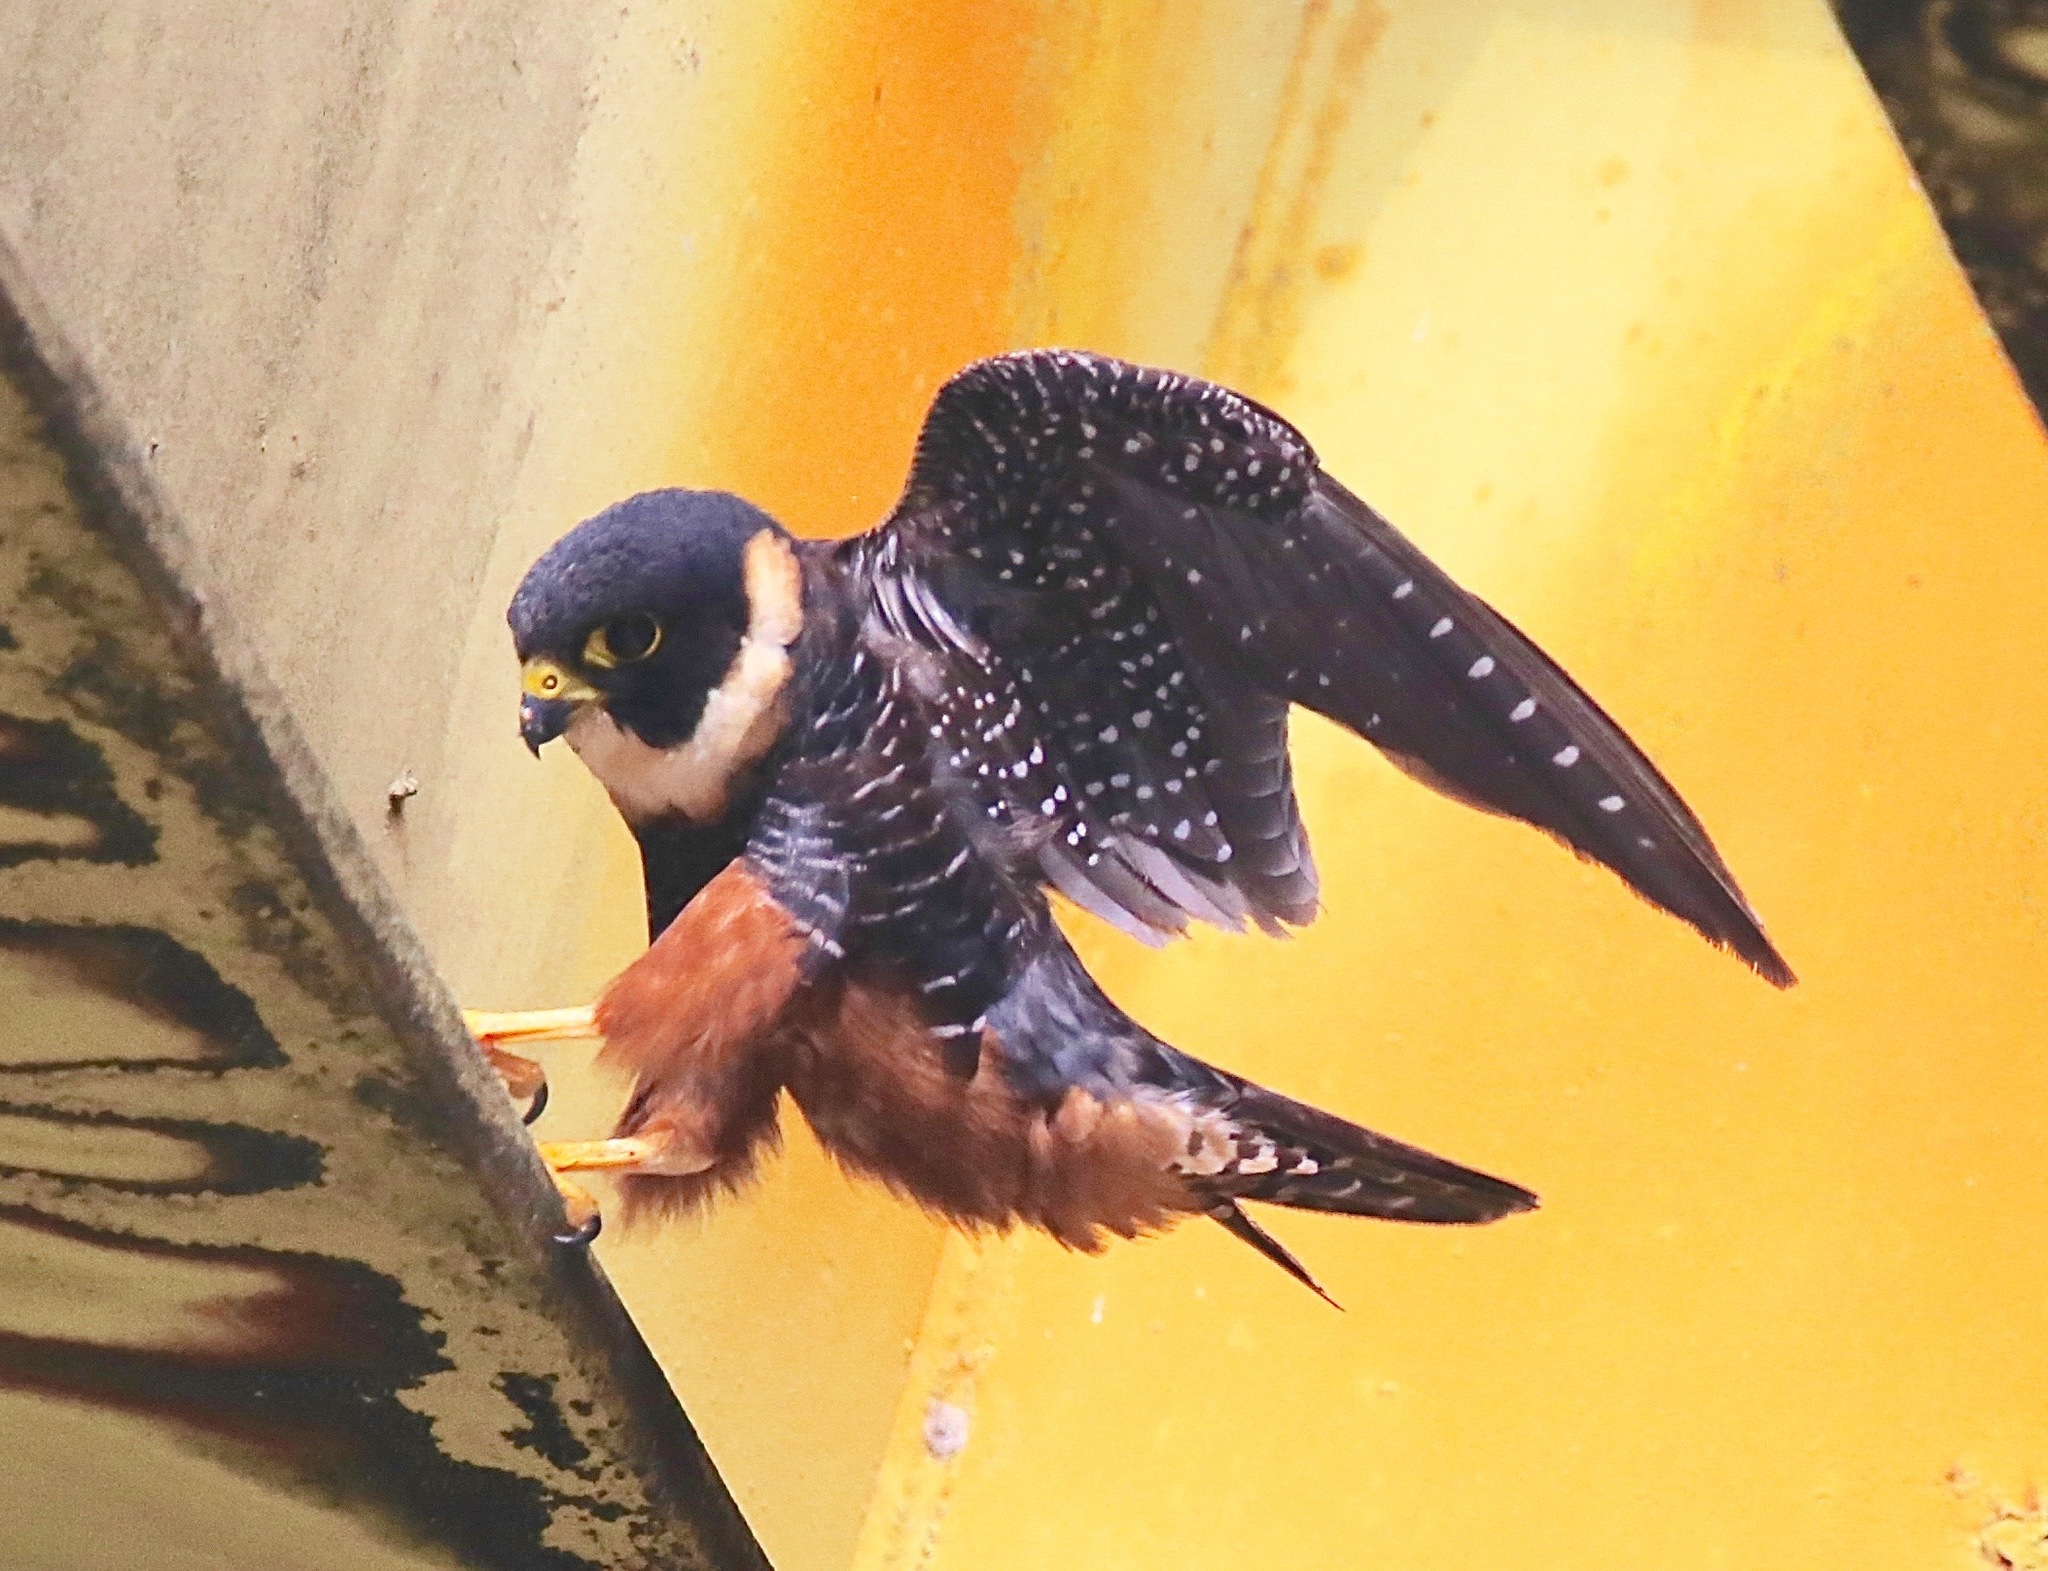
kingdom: Animalia
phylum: Chordata
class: Aves
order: Falconiformes
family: Falconidae
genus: Falco
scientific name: Falco rufigularis
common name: Bat falcon
